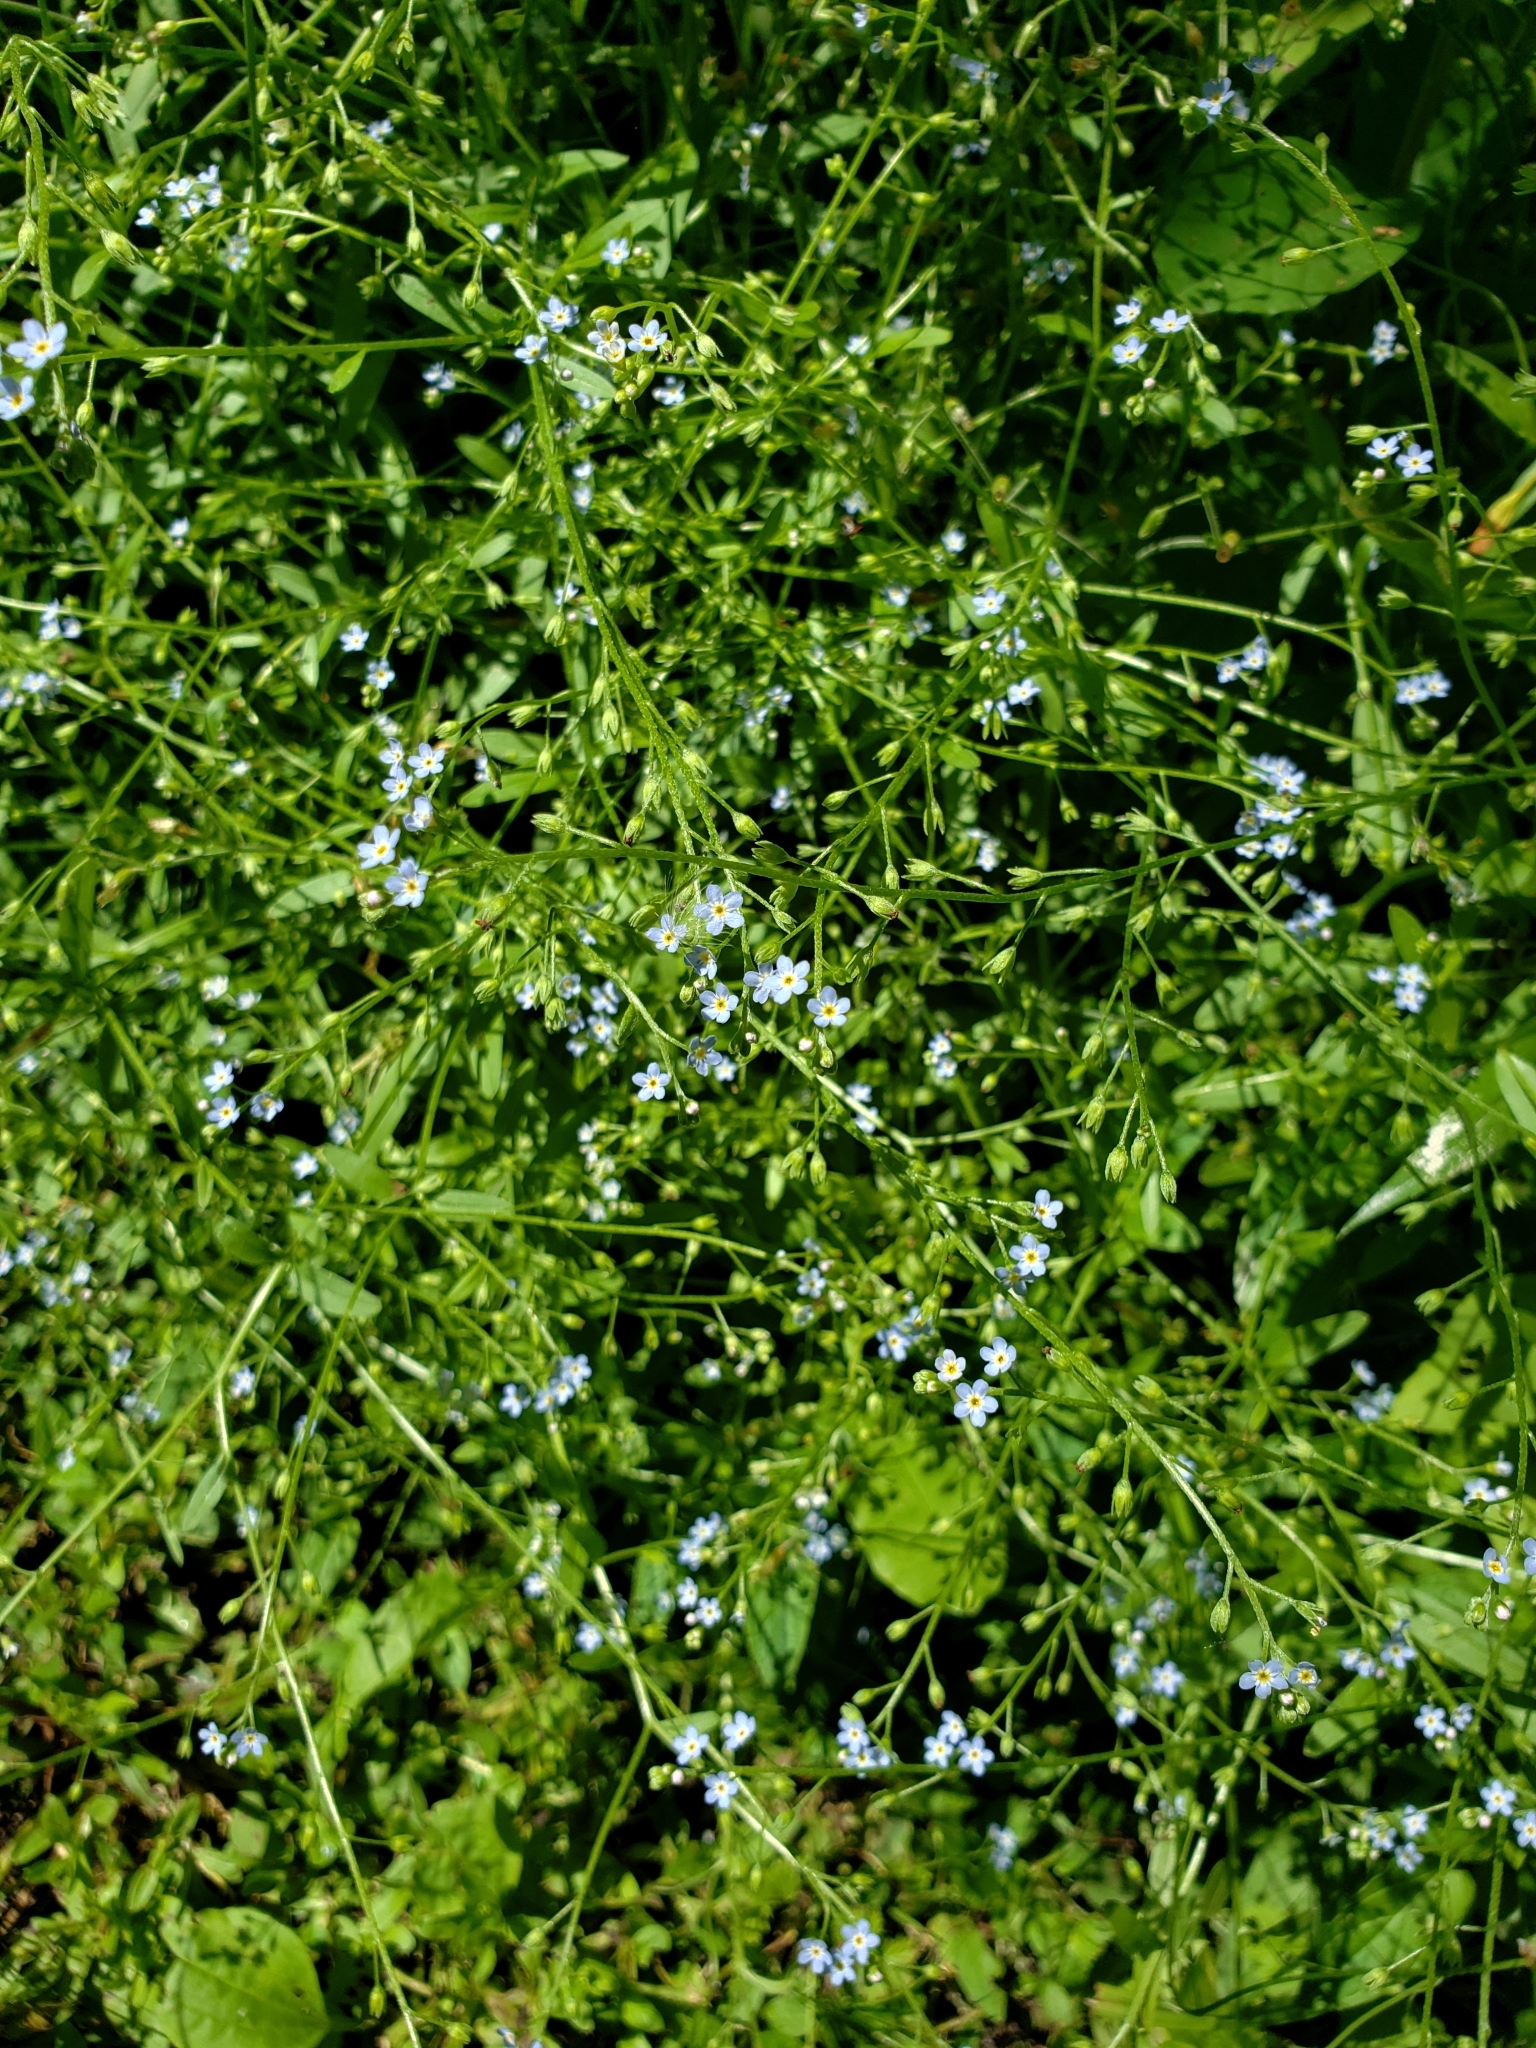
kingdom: Plantae
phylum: Tracheophyta
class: Magnoliopsida
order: Boraginales
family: Boraginaceae
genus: Myosotis
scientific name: Myosotis laxa
